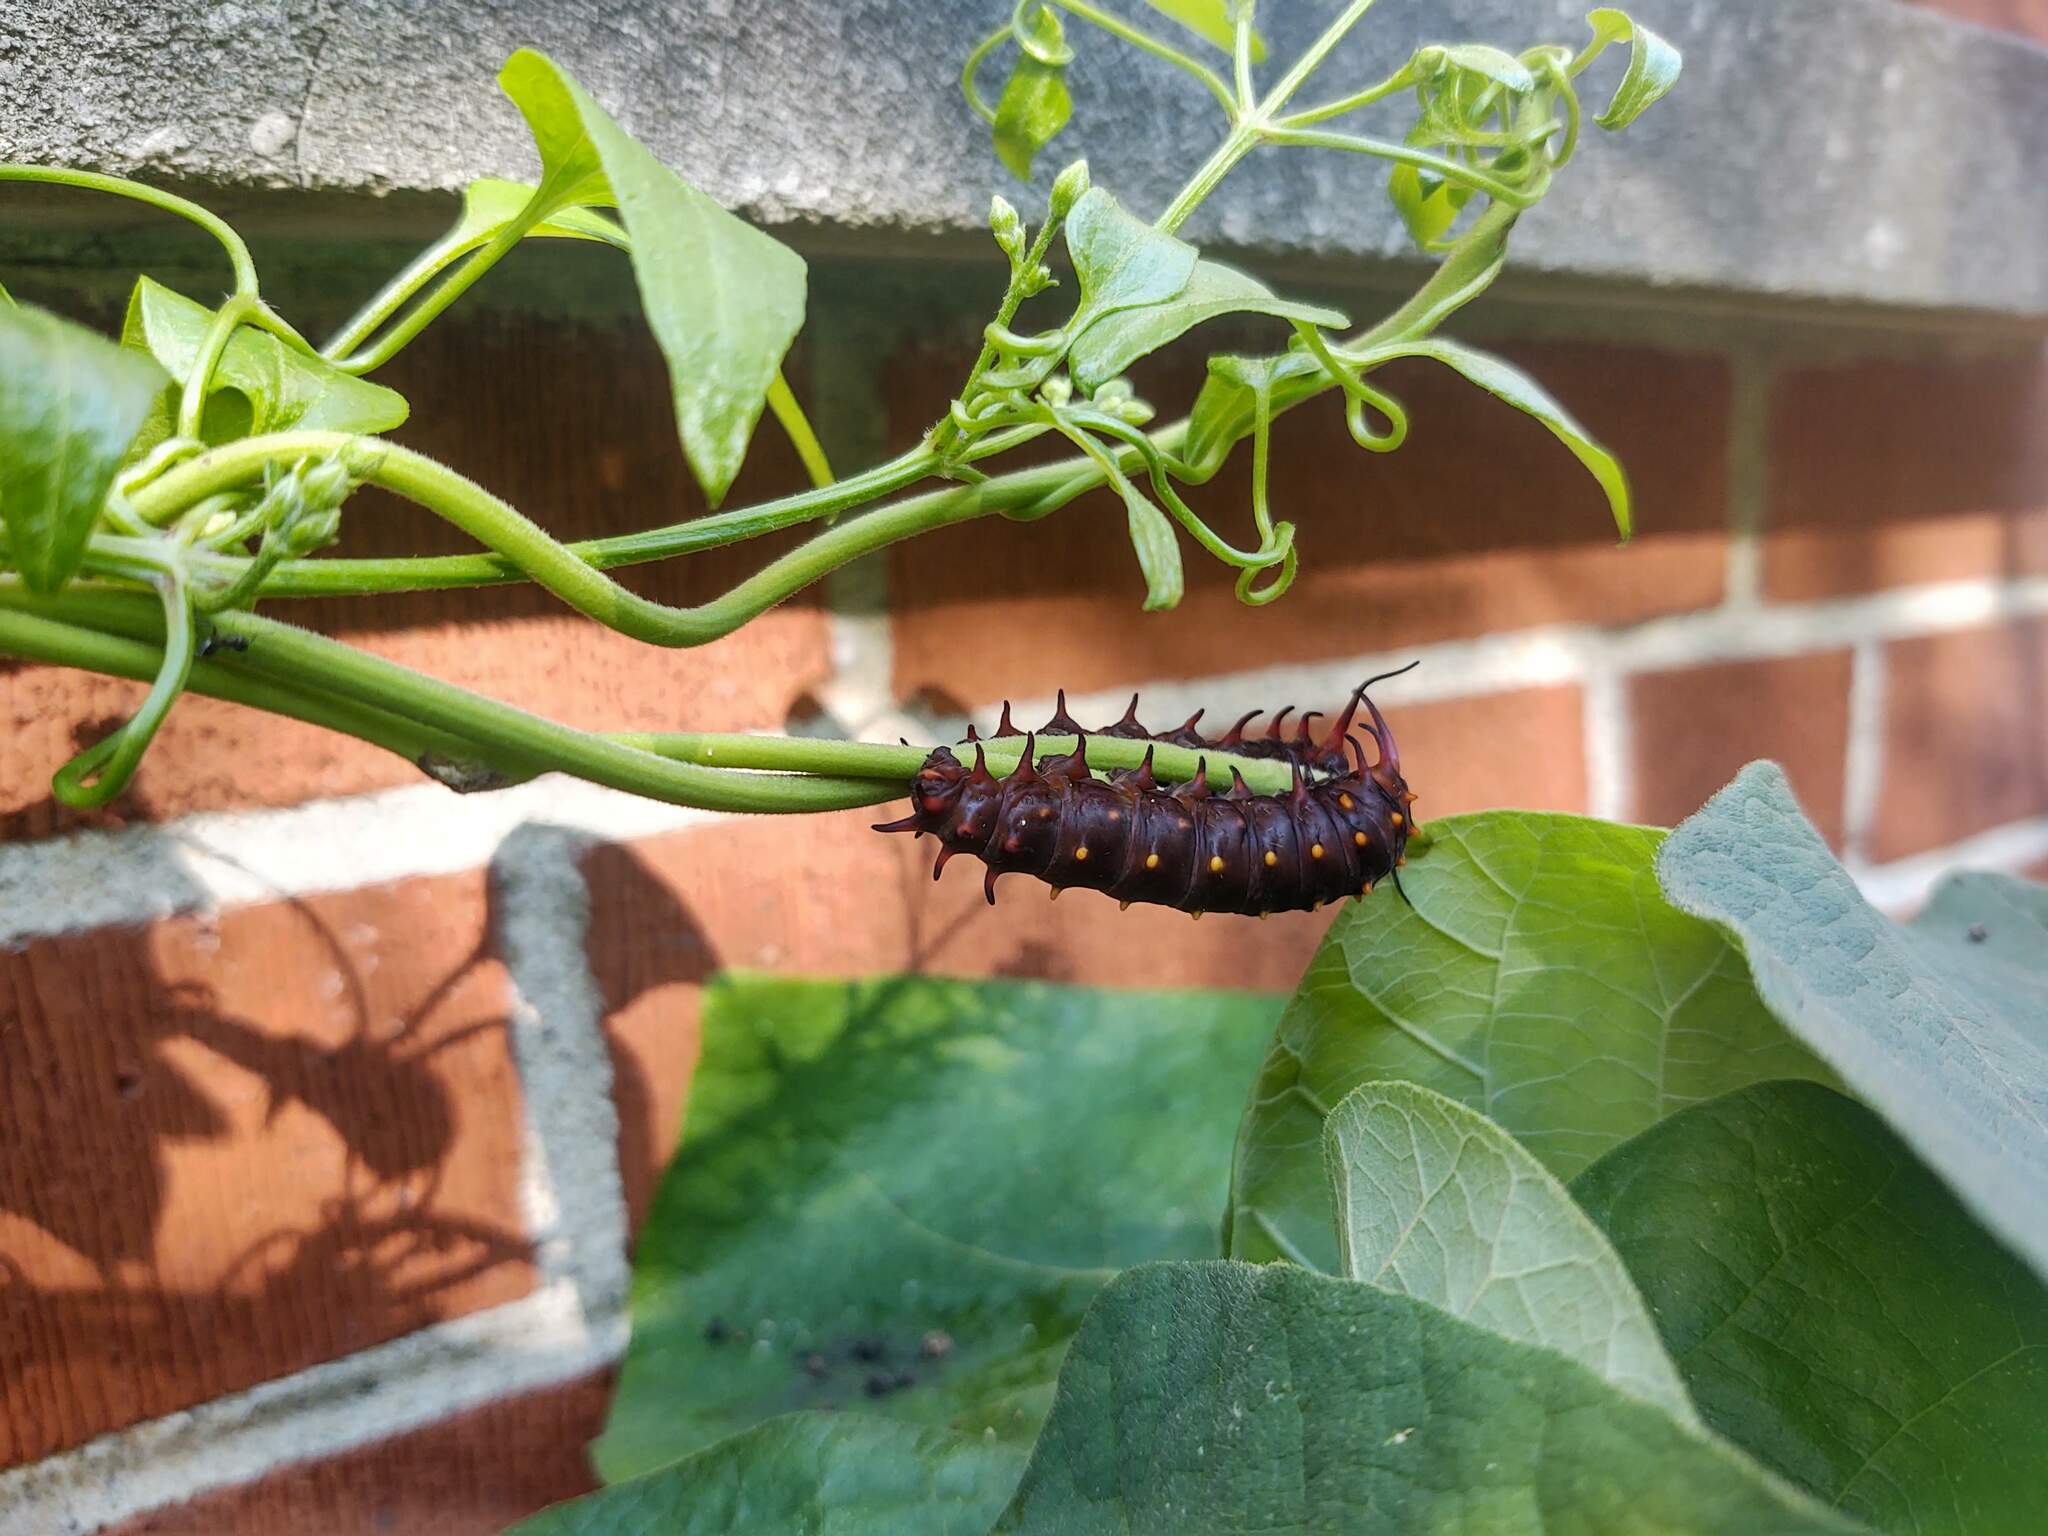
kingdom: Animalia
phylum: Arthropoda
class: Insecta
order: Lepidoptera
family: Papilionidae
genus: Battus
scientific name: Battus philenor
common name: Pipevine swallowtail
